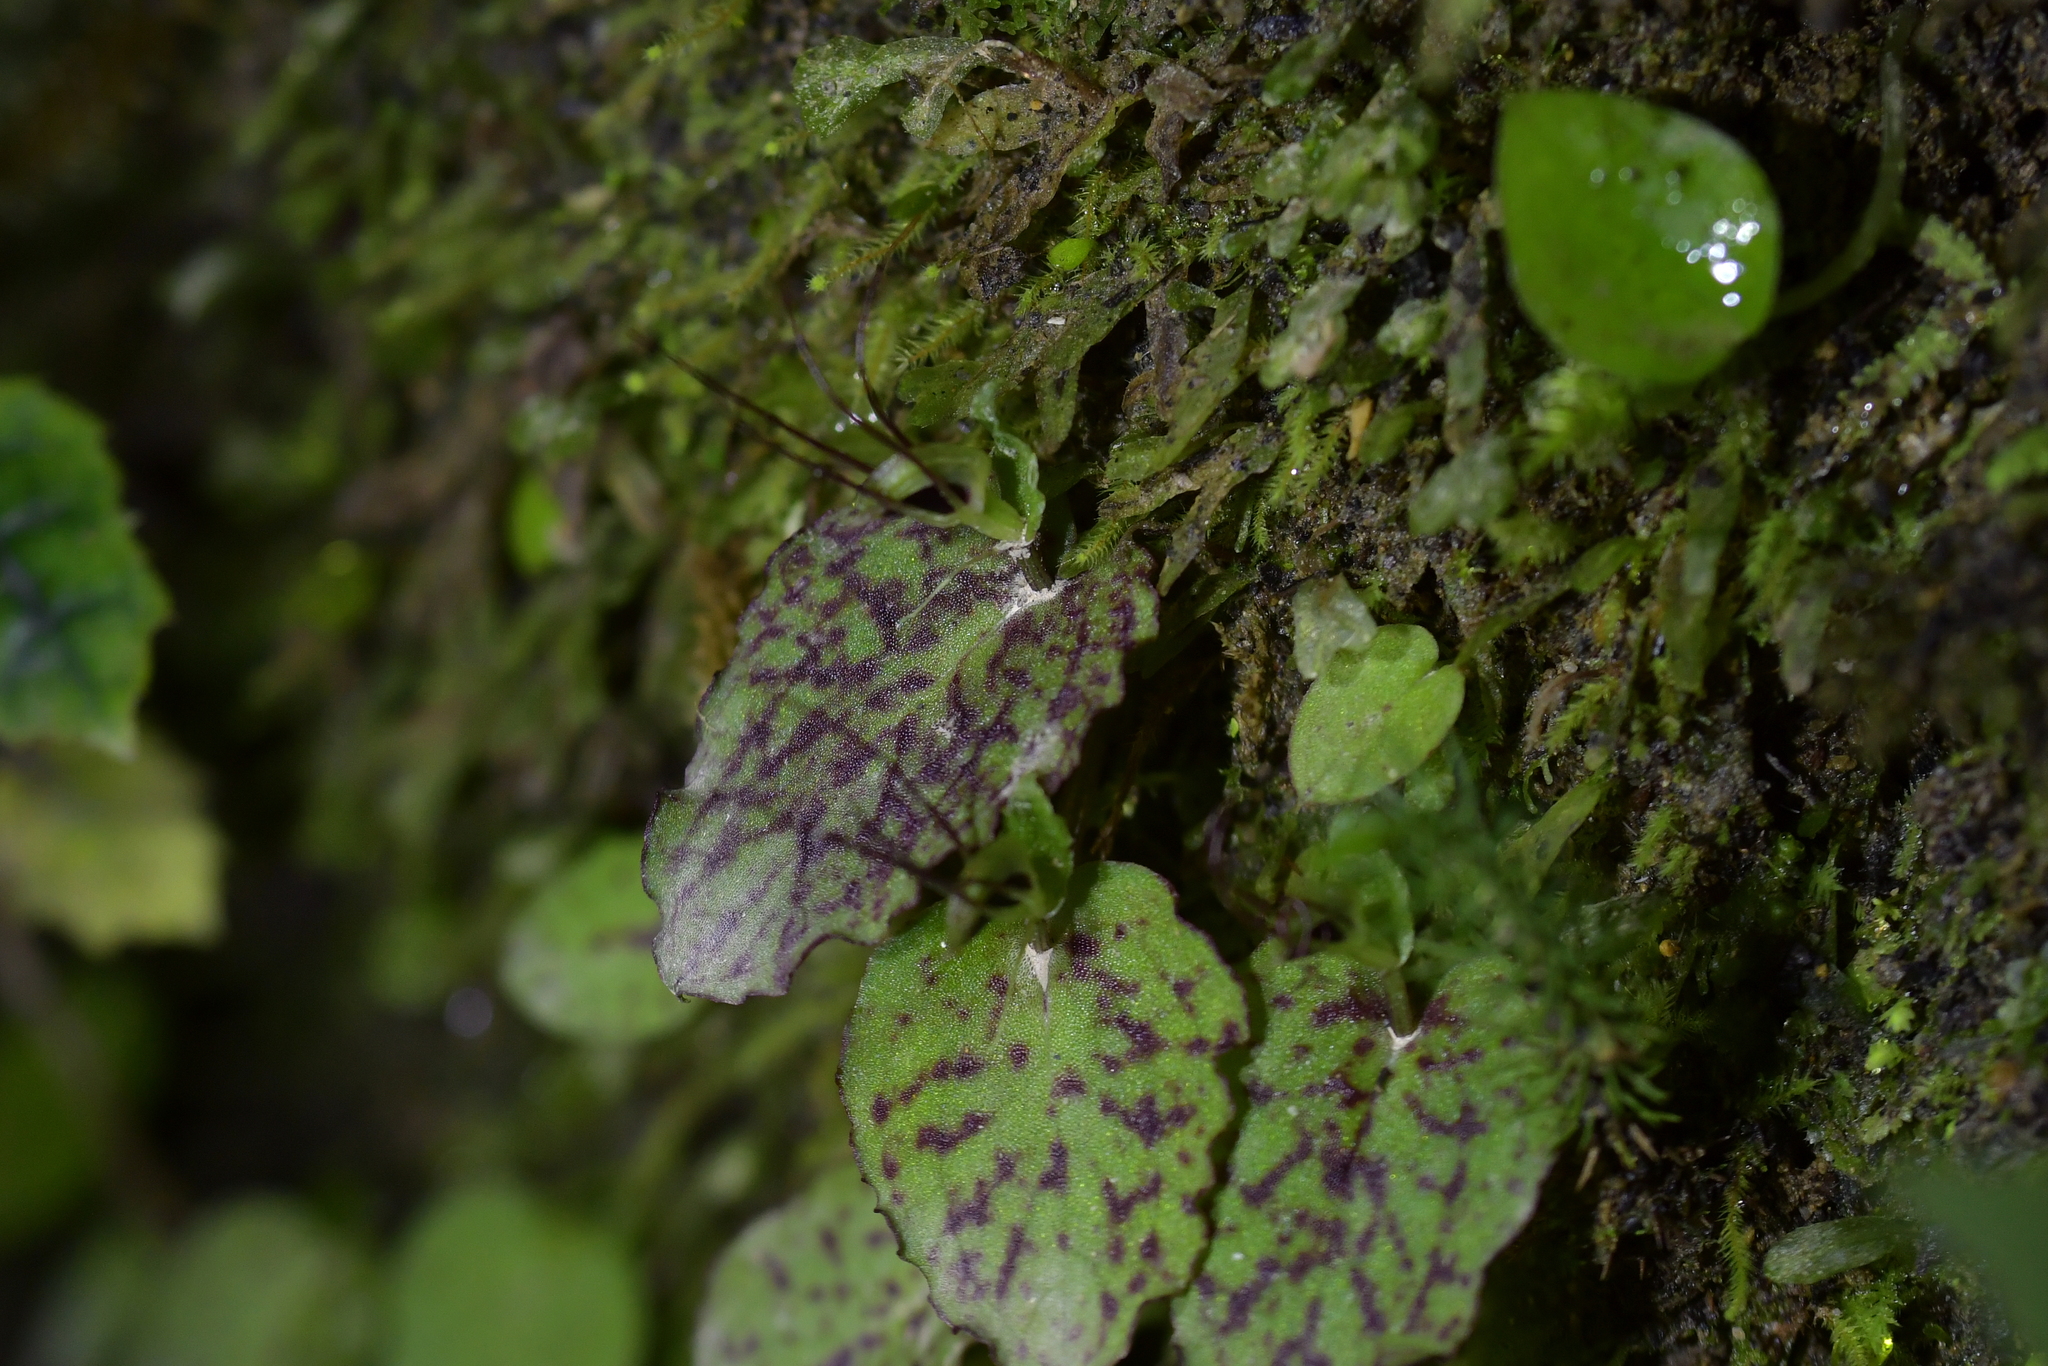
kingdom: Plantae
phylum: Tracheophyta
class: Liliopsida
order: Asparagales
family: Orchidaceae
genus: Corybas
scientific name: Corybas oblongus
